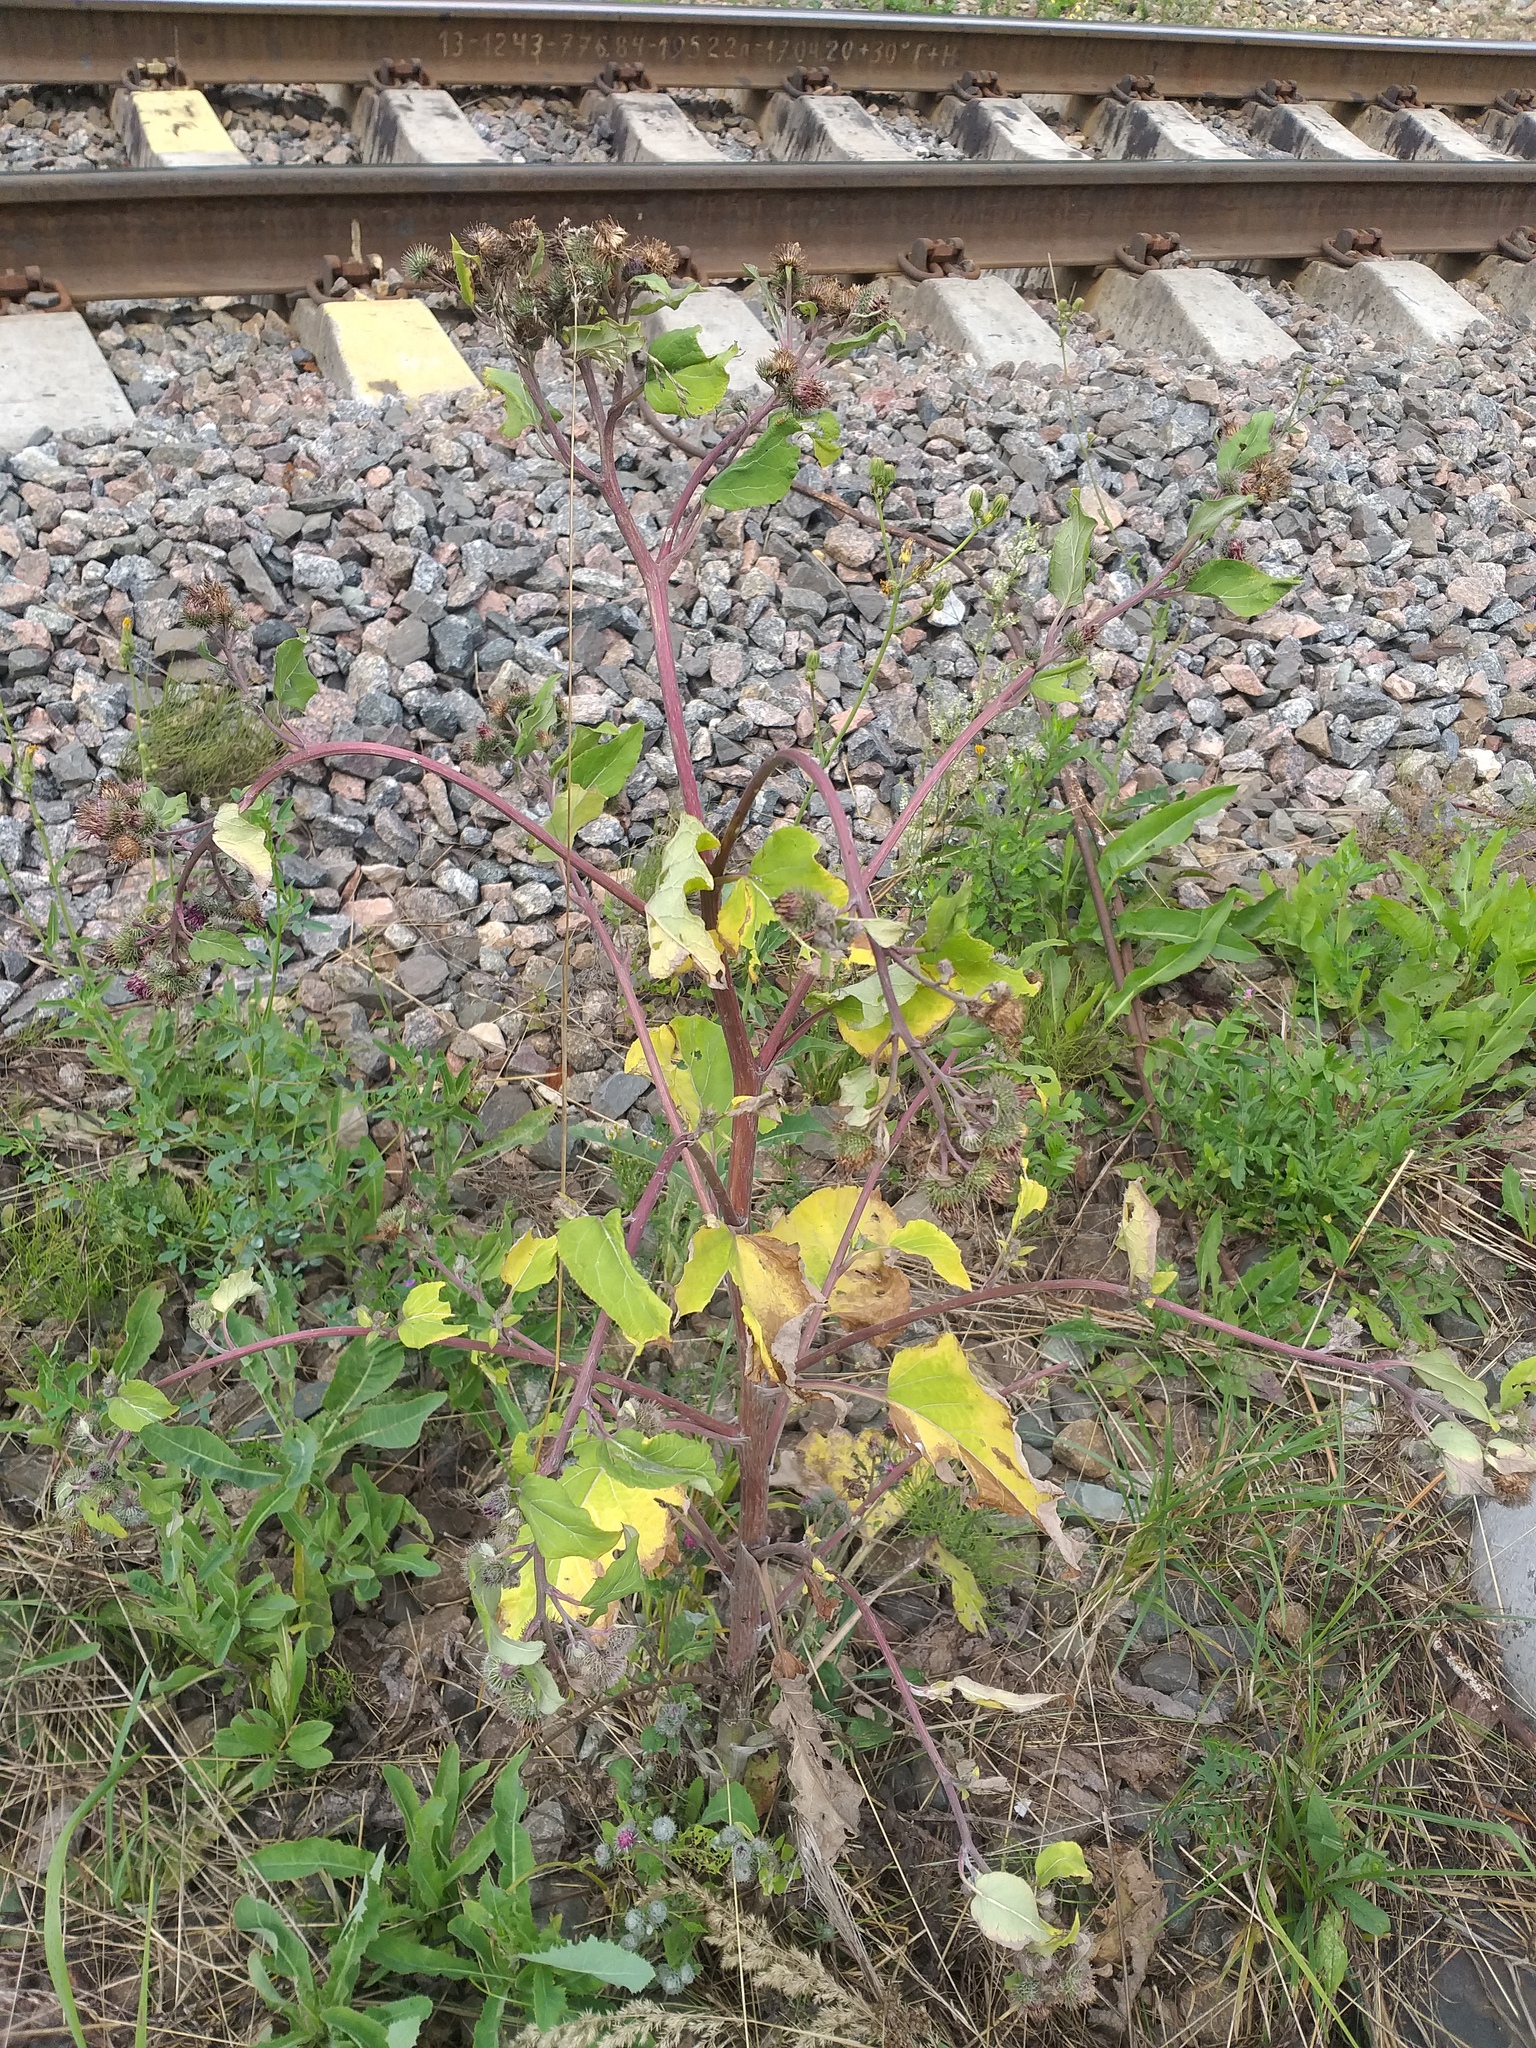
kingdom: Plantae
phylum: Tracheophyta
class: Magnoliopsida
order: Asterales
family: Asteraceae
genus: Arctium
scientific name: Arctium tomentosum
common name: Woolly burdock
